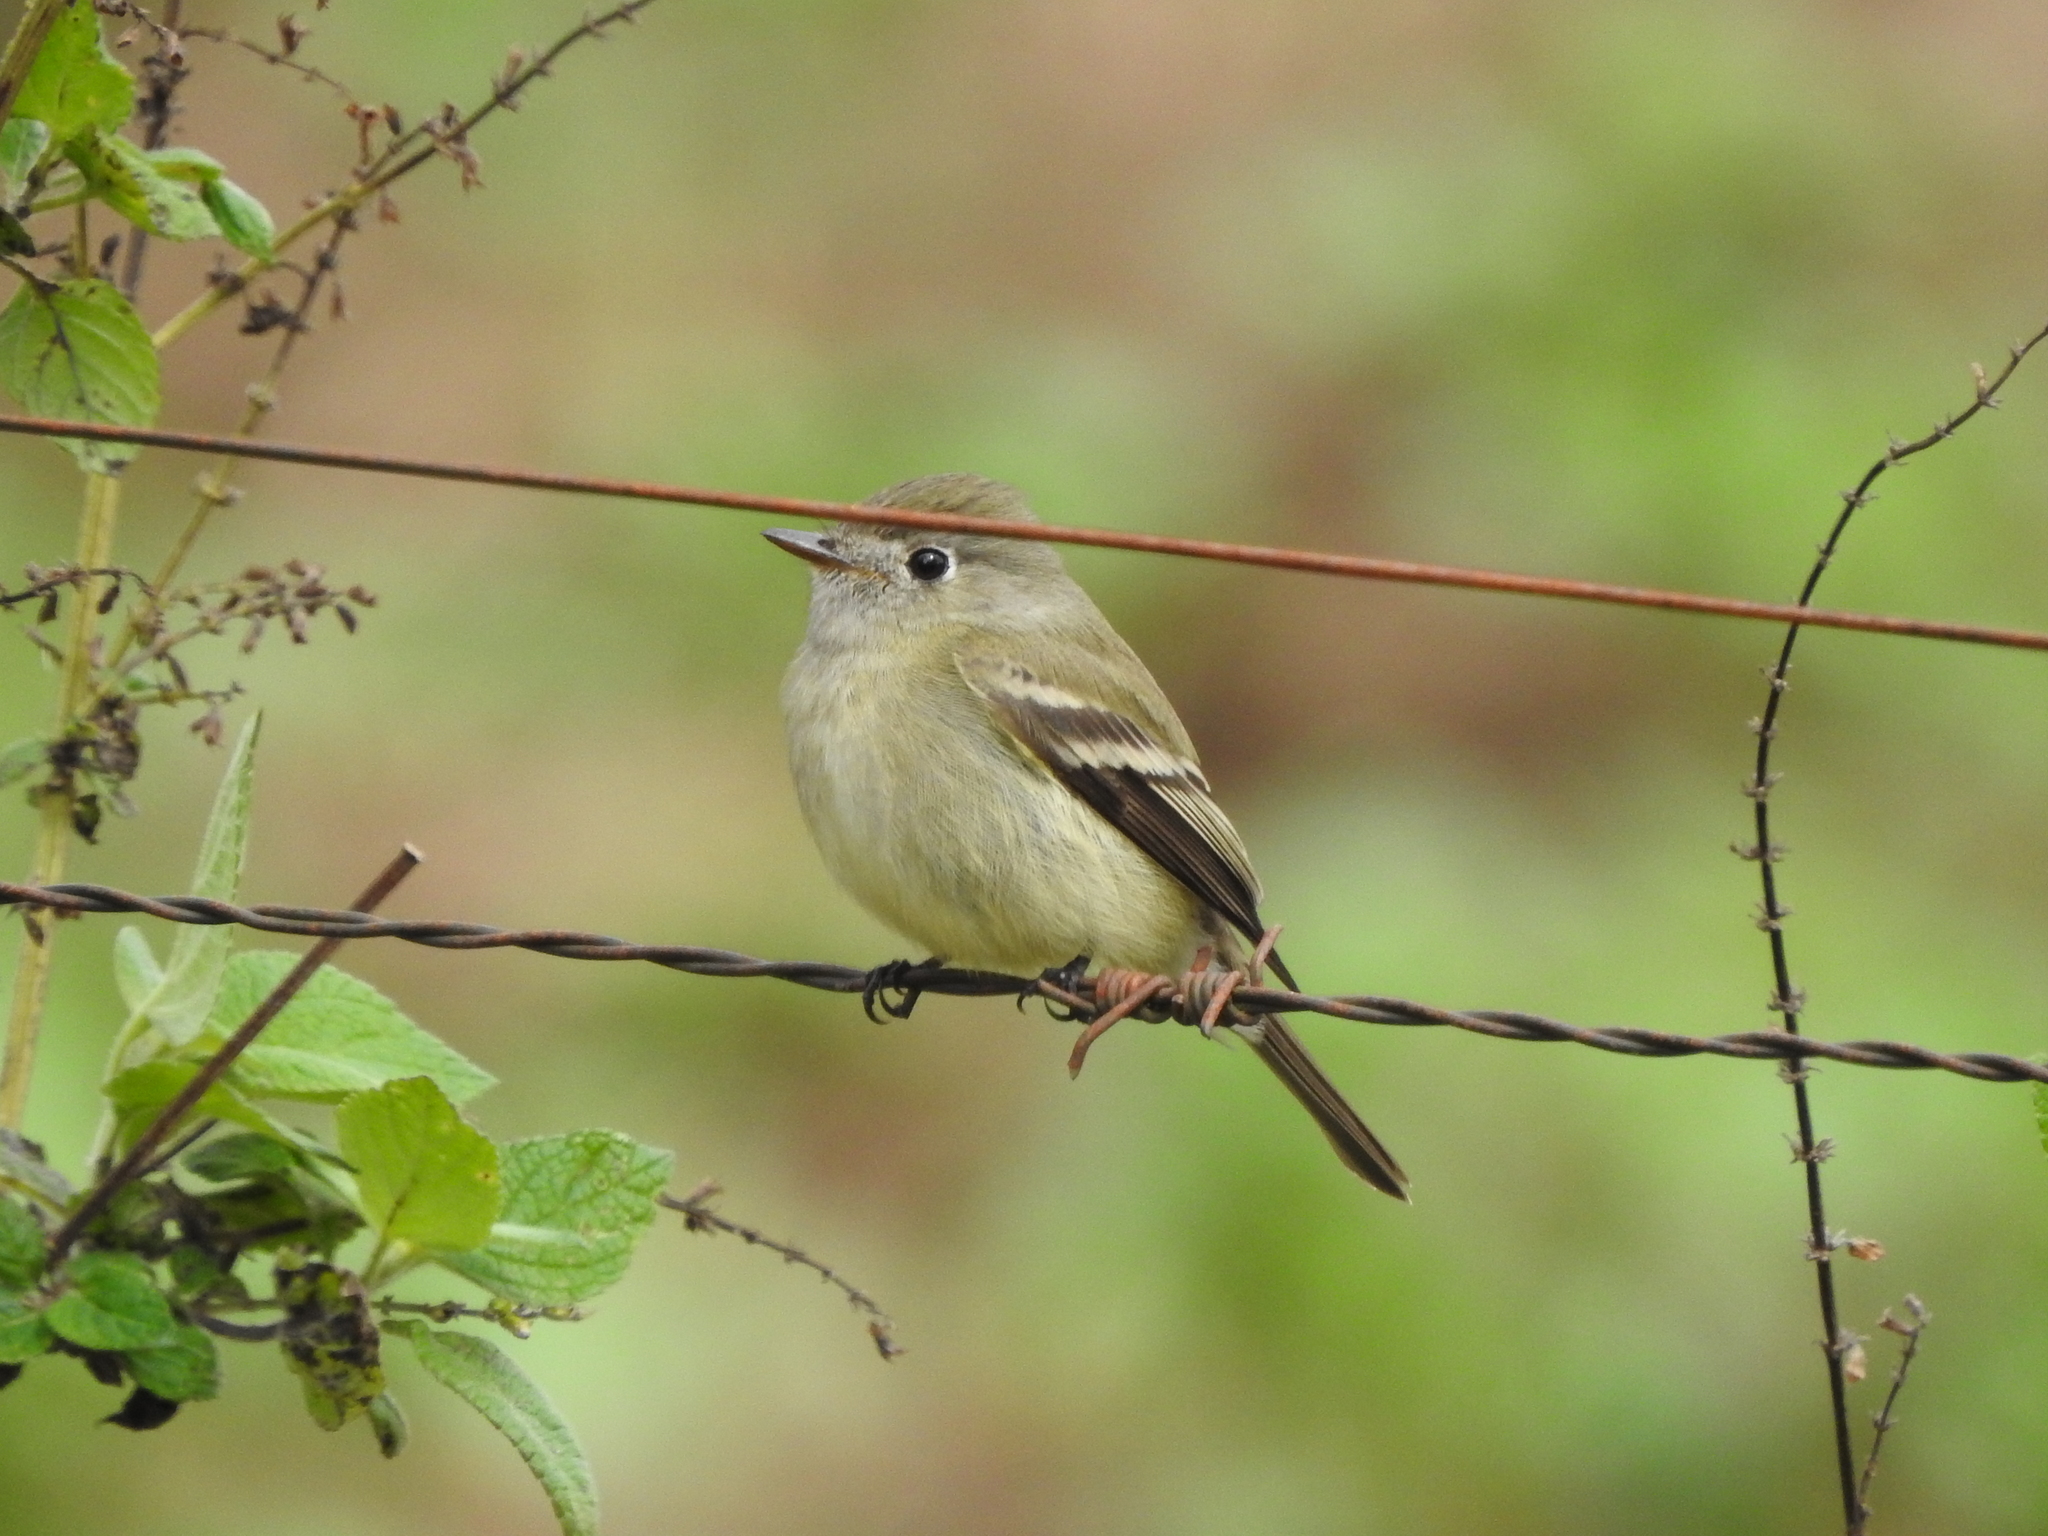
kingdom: Animalia
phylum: Chordata
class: Aves
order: Passeriformes
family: Tyrannidae
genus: Empidonax
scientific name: Empidonax hammondii
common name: Hammond's flycatcher
